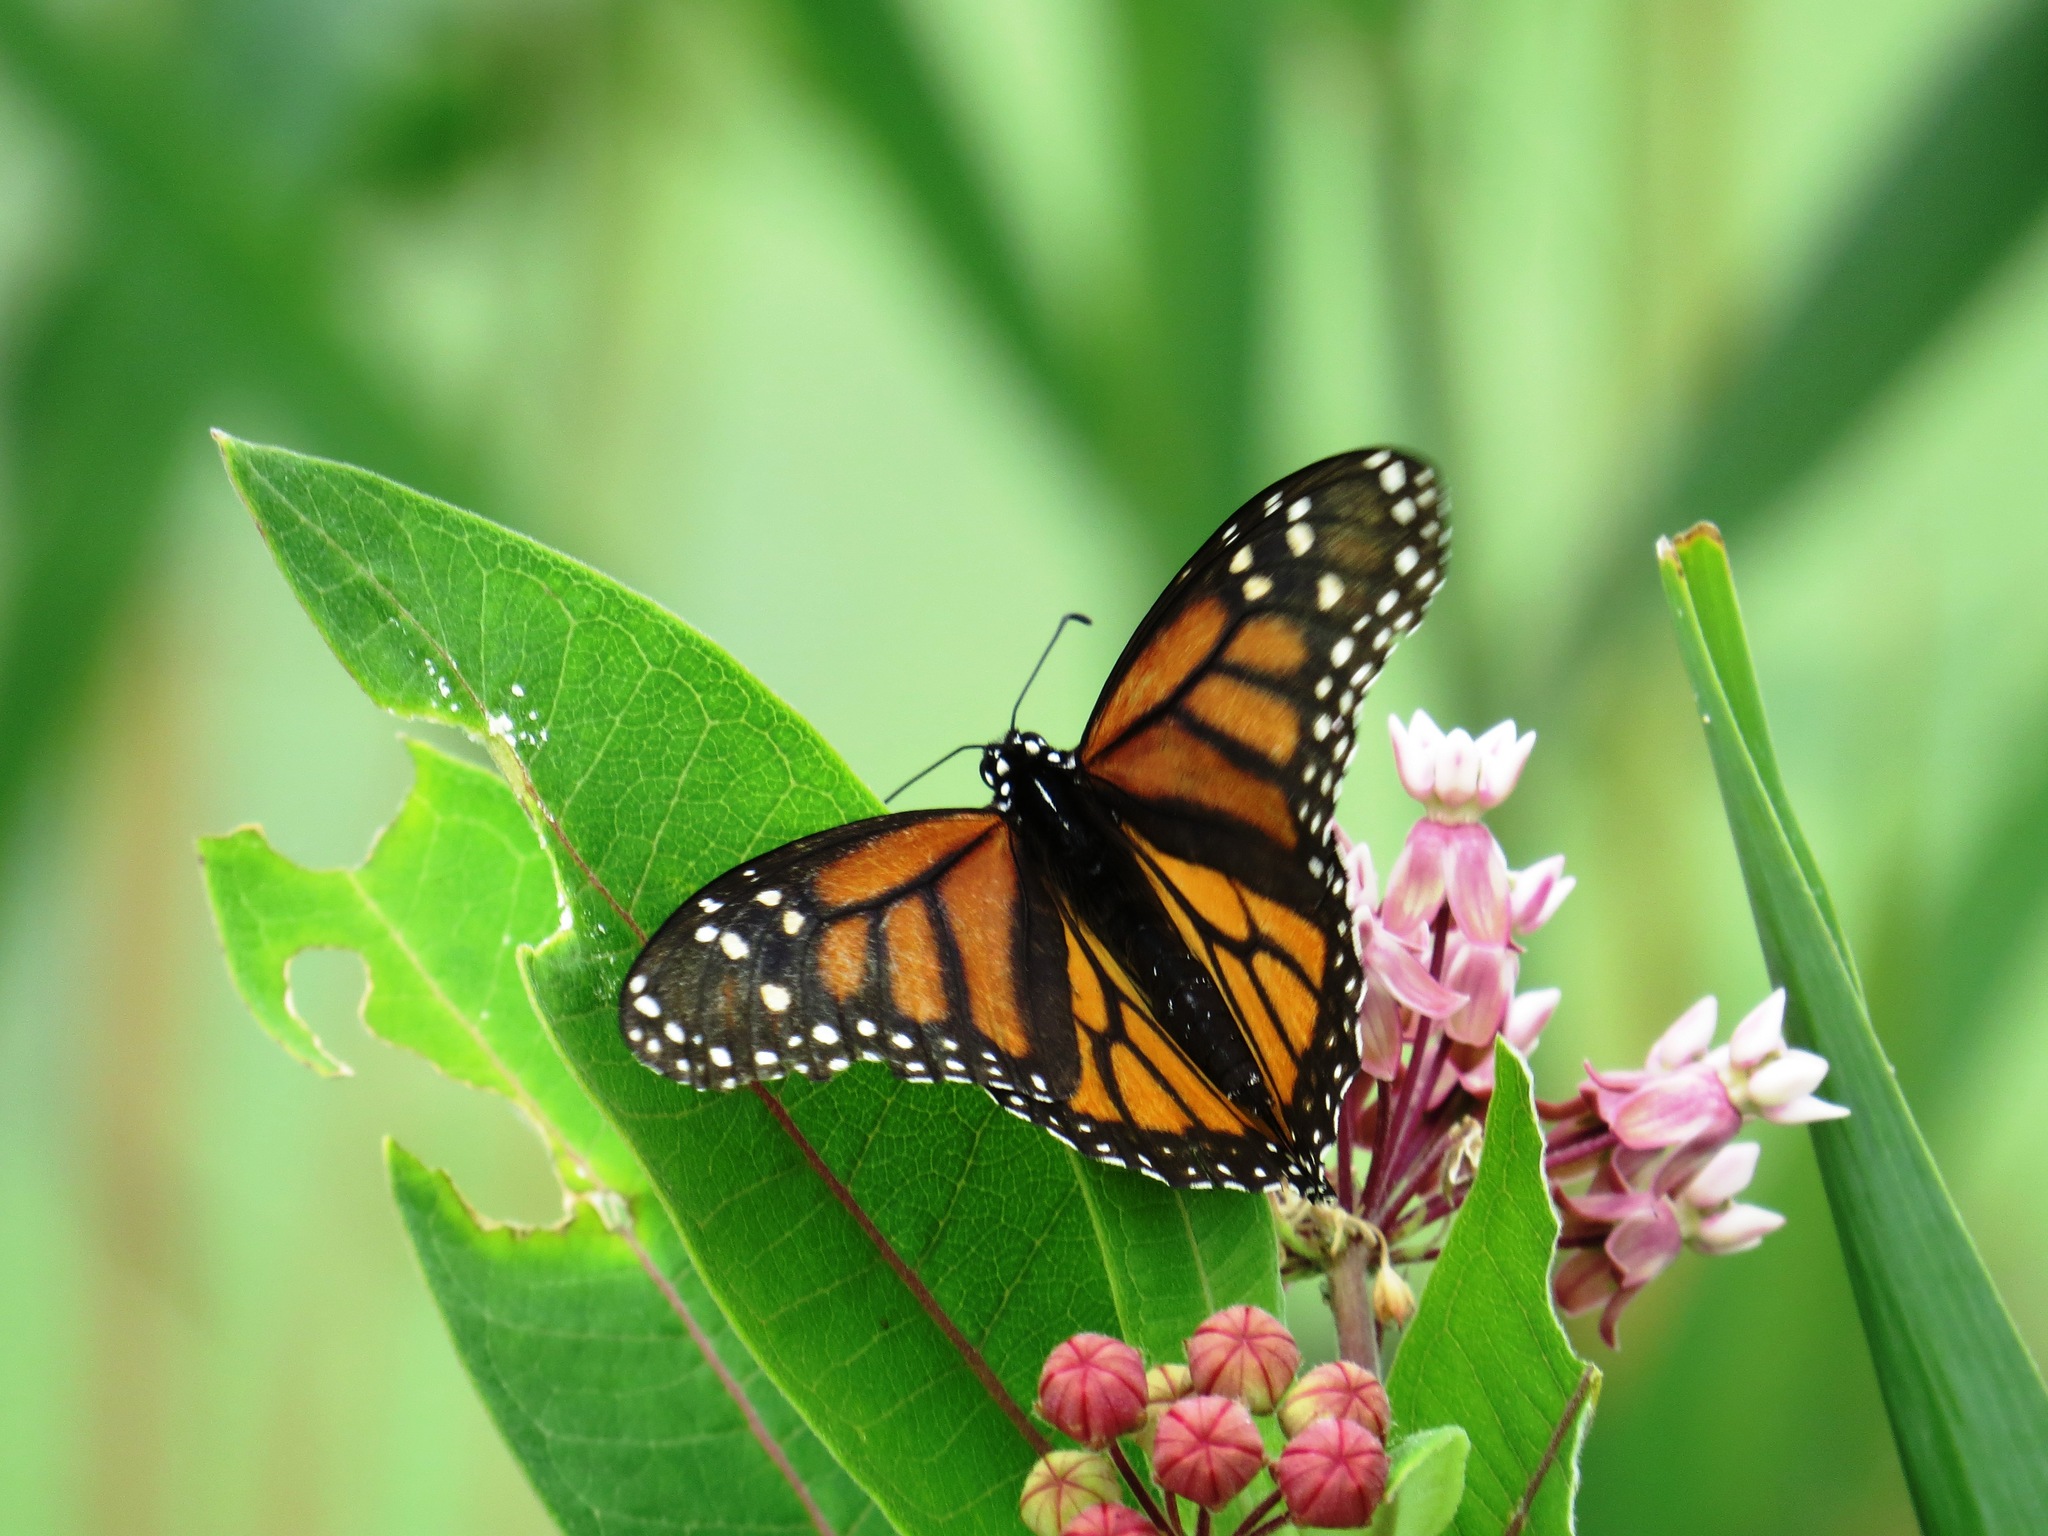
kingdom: Animalia
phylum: Arthropoda
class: Insecta
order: Lepidoptera
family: Nymphalidae
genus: Danaus
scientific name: Danaus plexippus
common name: Monarch
